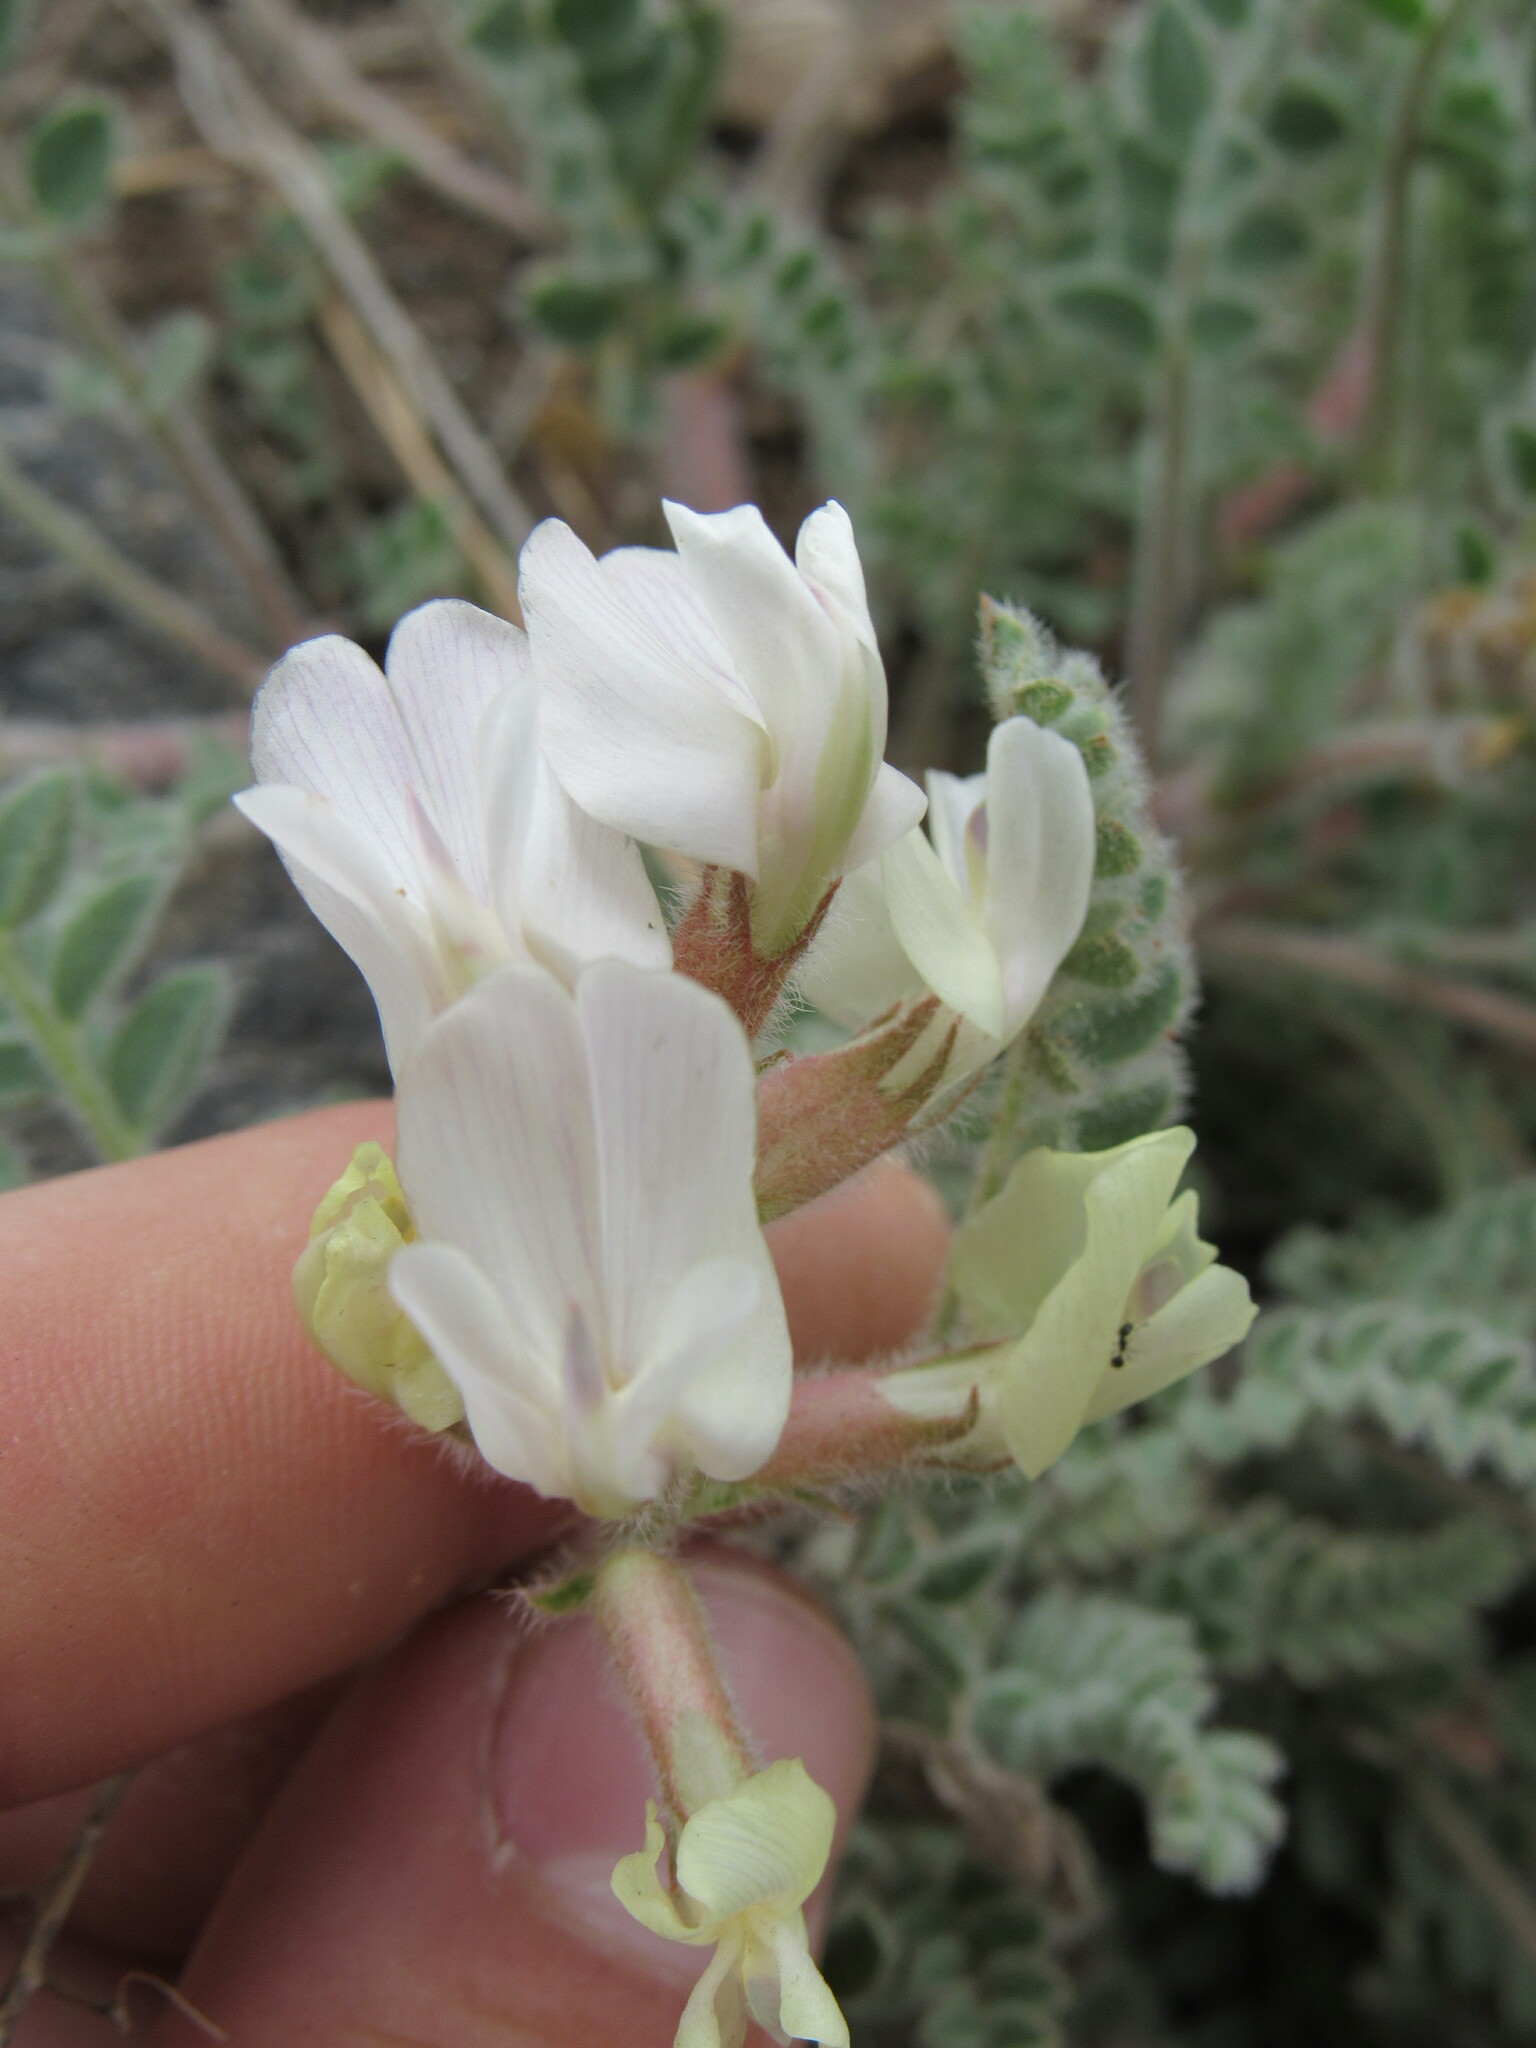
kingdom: Plantae
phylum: Tracheophyta
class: Magnoliopsida
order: Fabales
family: Fabaceae
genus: Astragalus
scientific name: Astragalus parryi
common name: Parry milk-vetch
